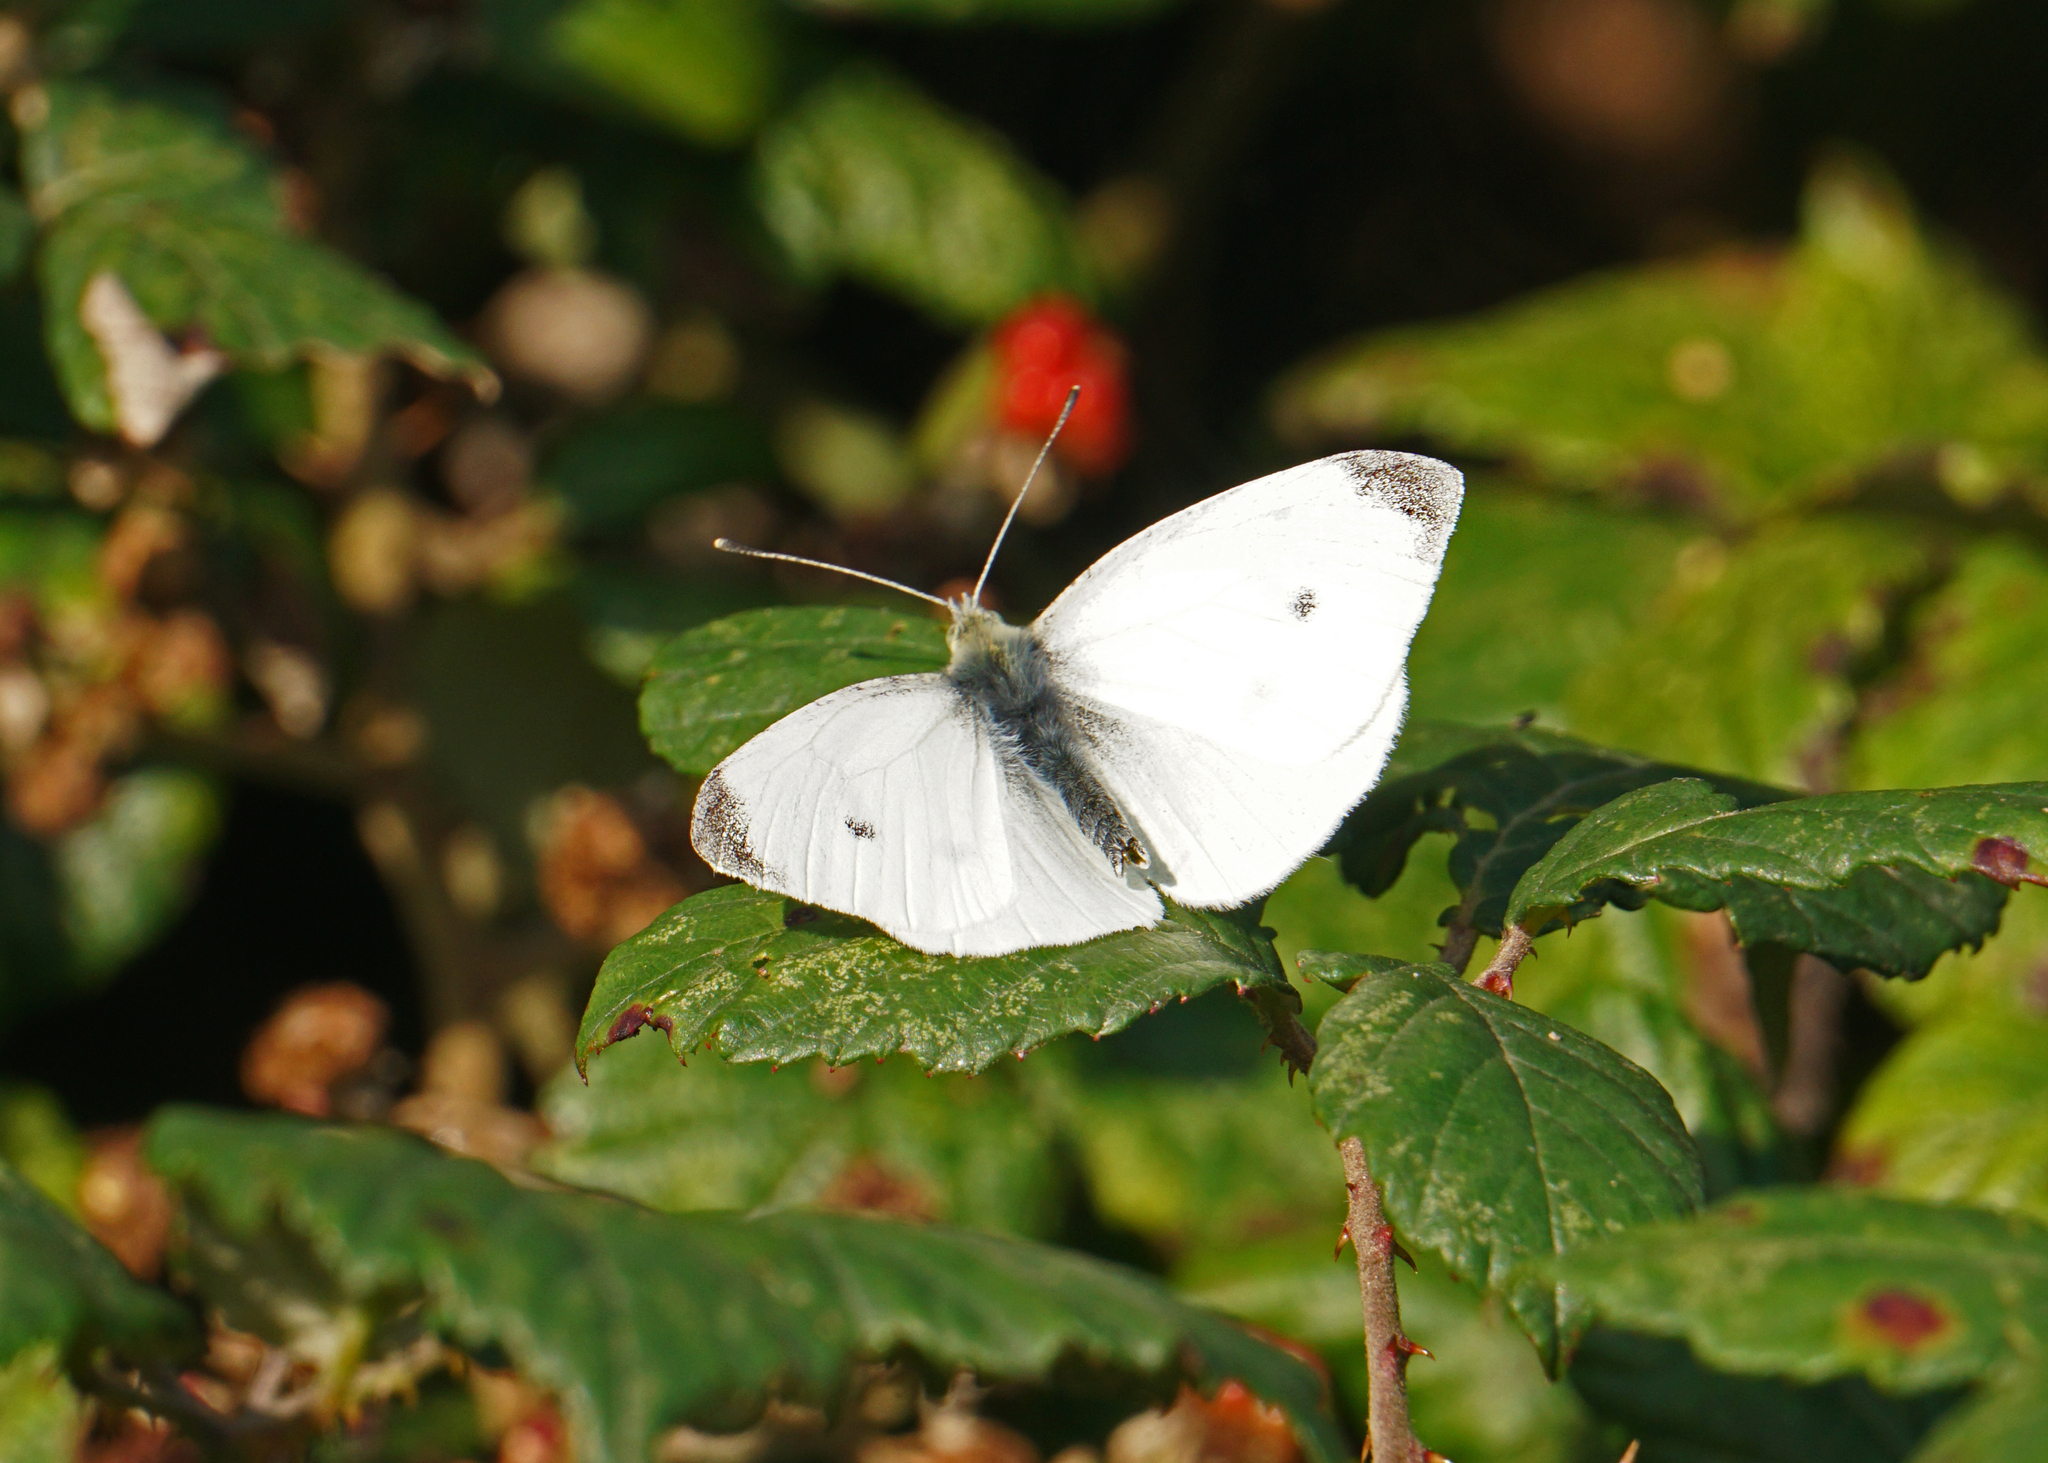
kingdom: Animalia
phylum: Arthropoda
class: Insecta
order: Lepidoptera
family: Pieridae
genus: Pieris
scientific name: Pieris rapae
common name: Small white
